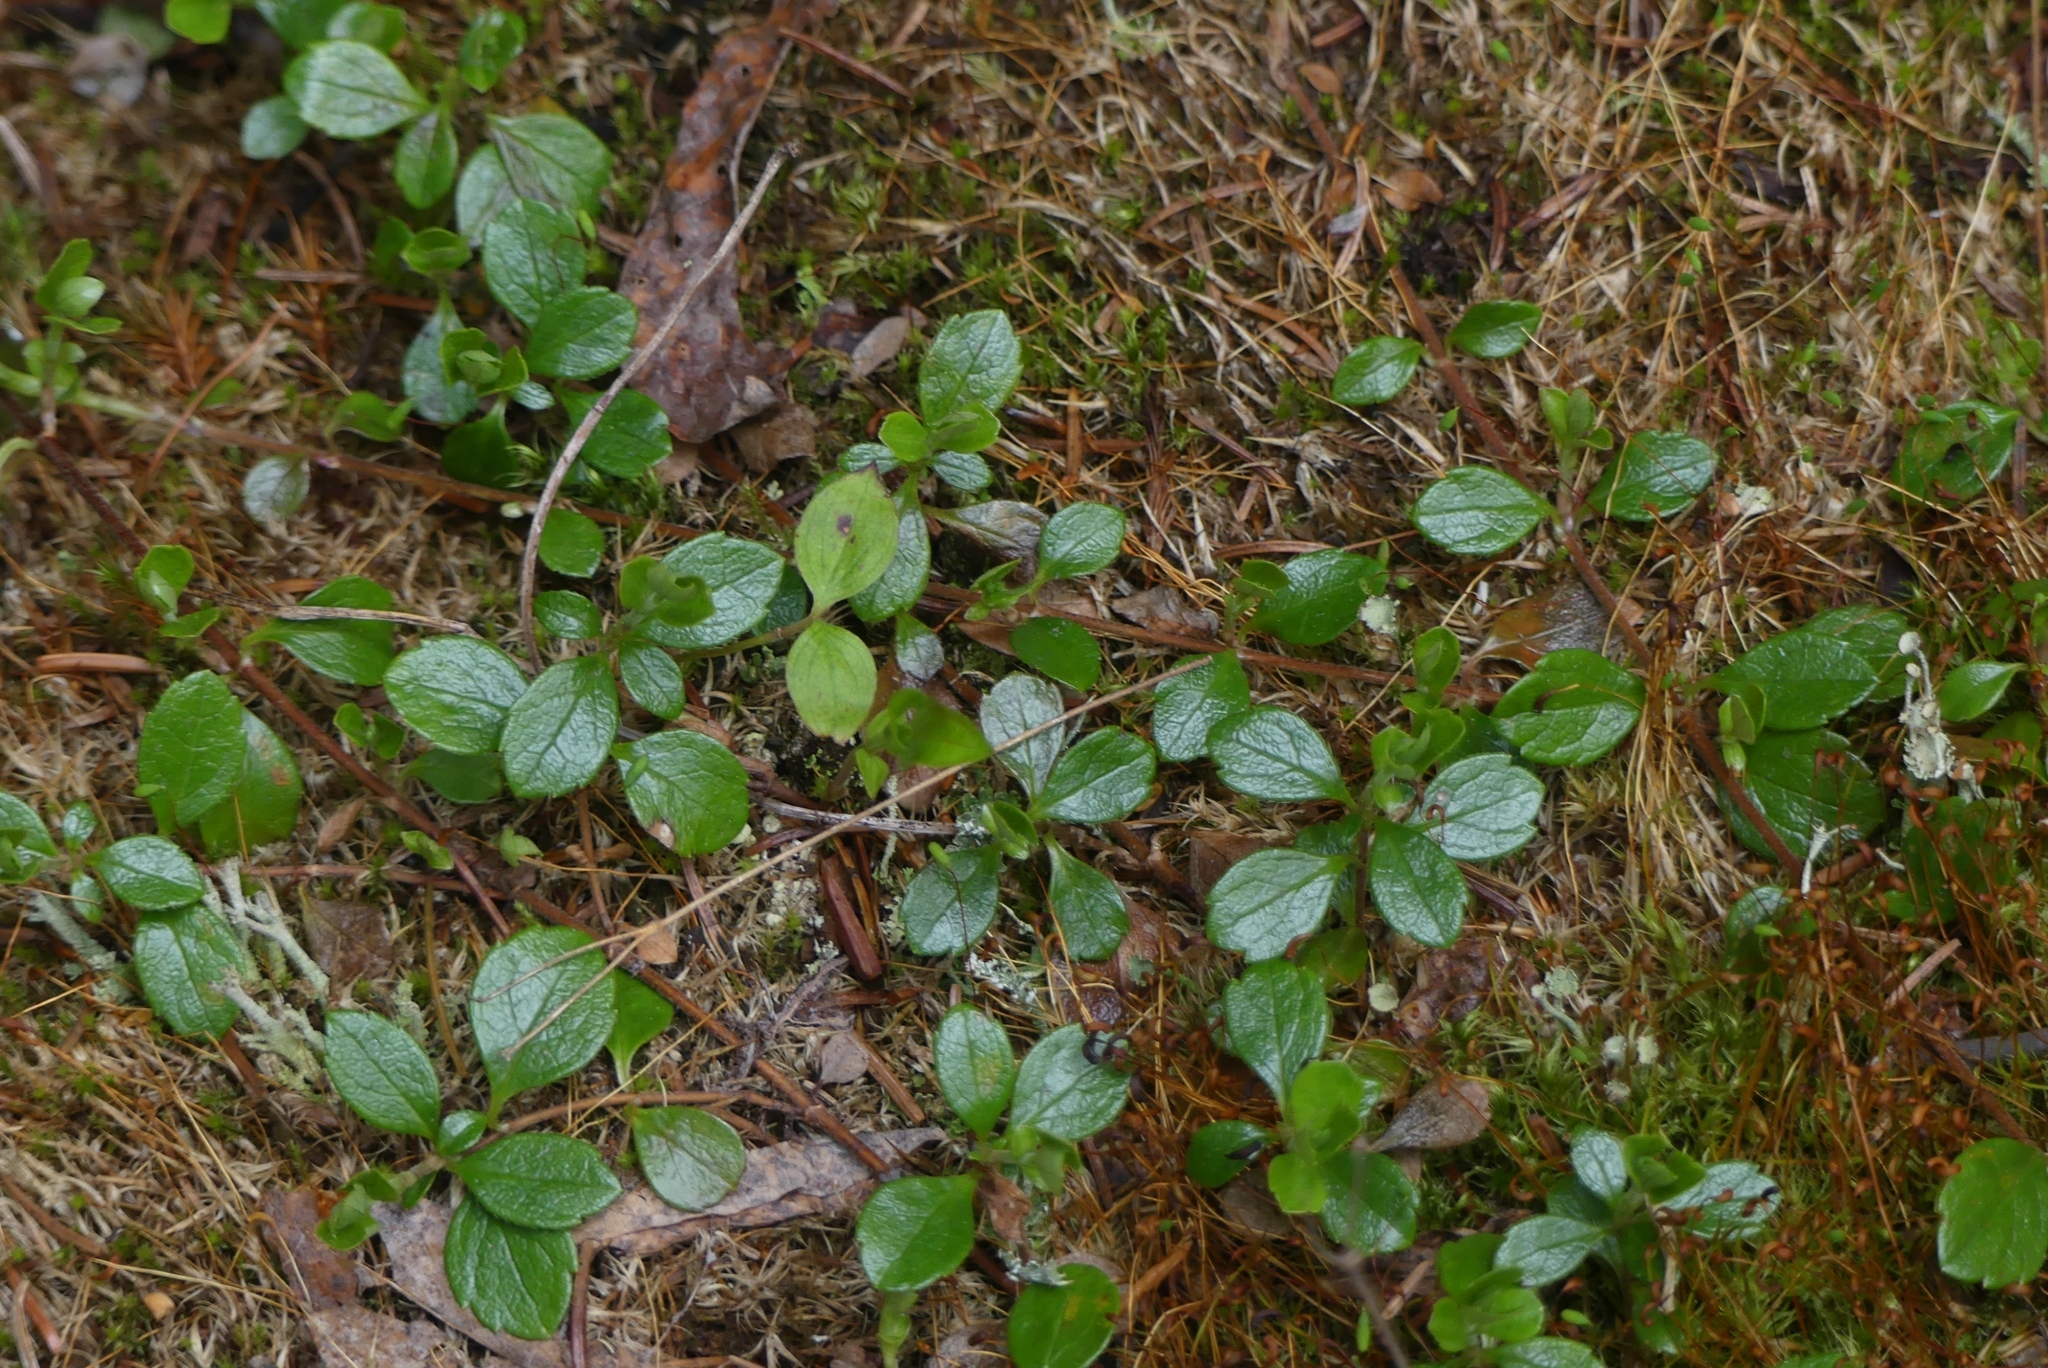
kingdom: Plantae
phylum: Tracheophyta
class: Magnoliopsida
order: Dipsacales
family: Caprifoliaceae
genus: Linnaea
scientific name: Linnaea borealis
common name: Twinflower
